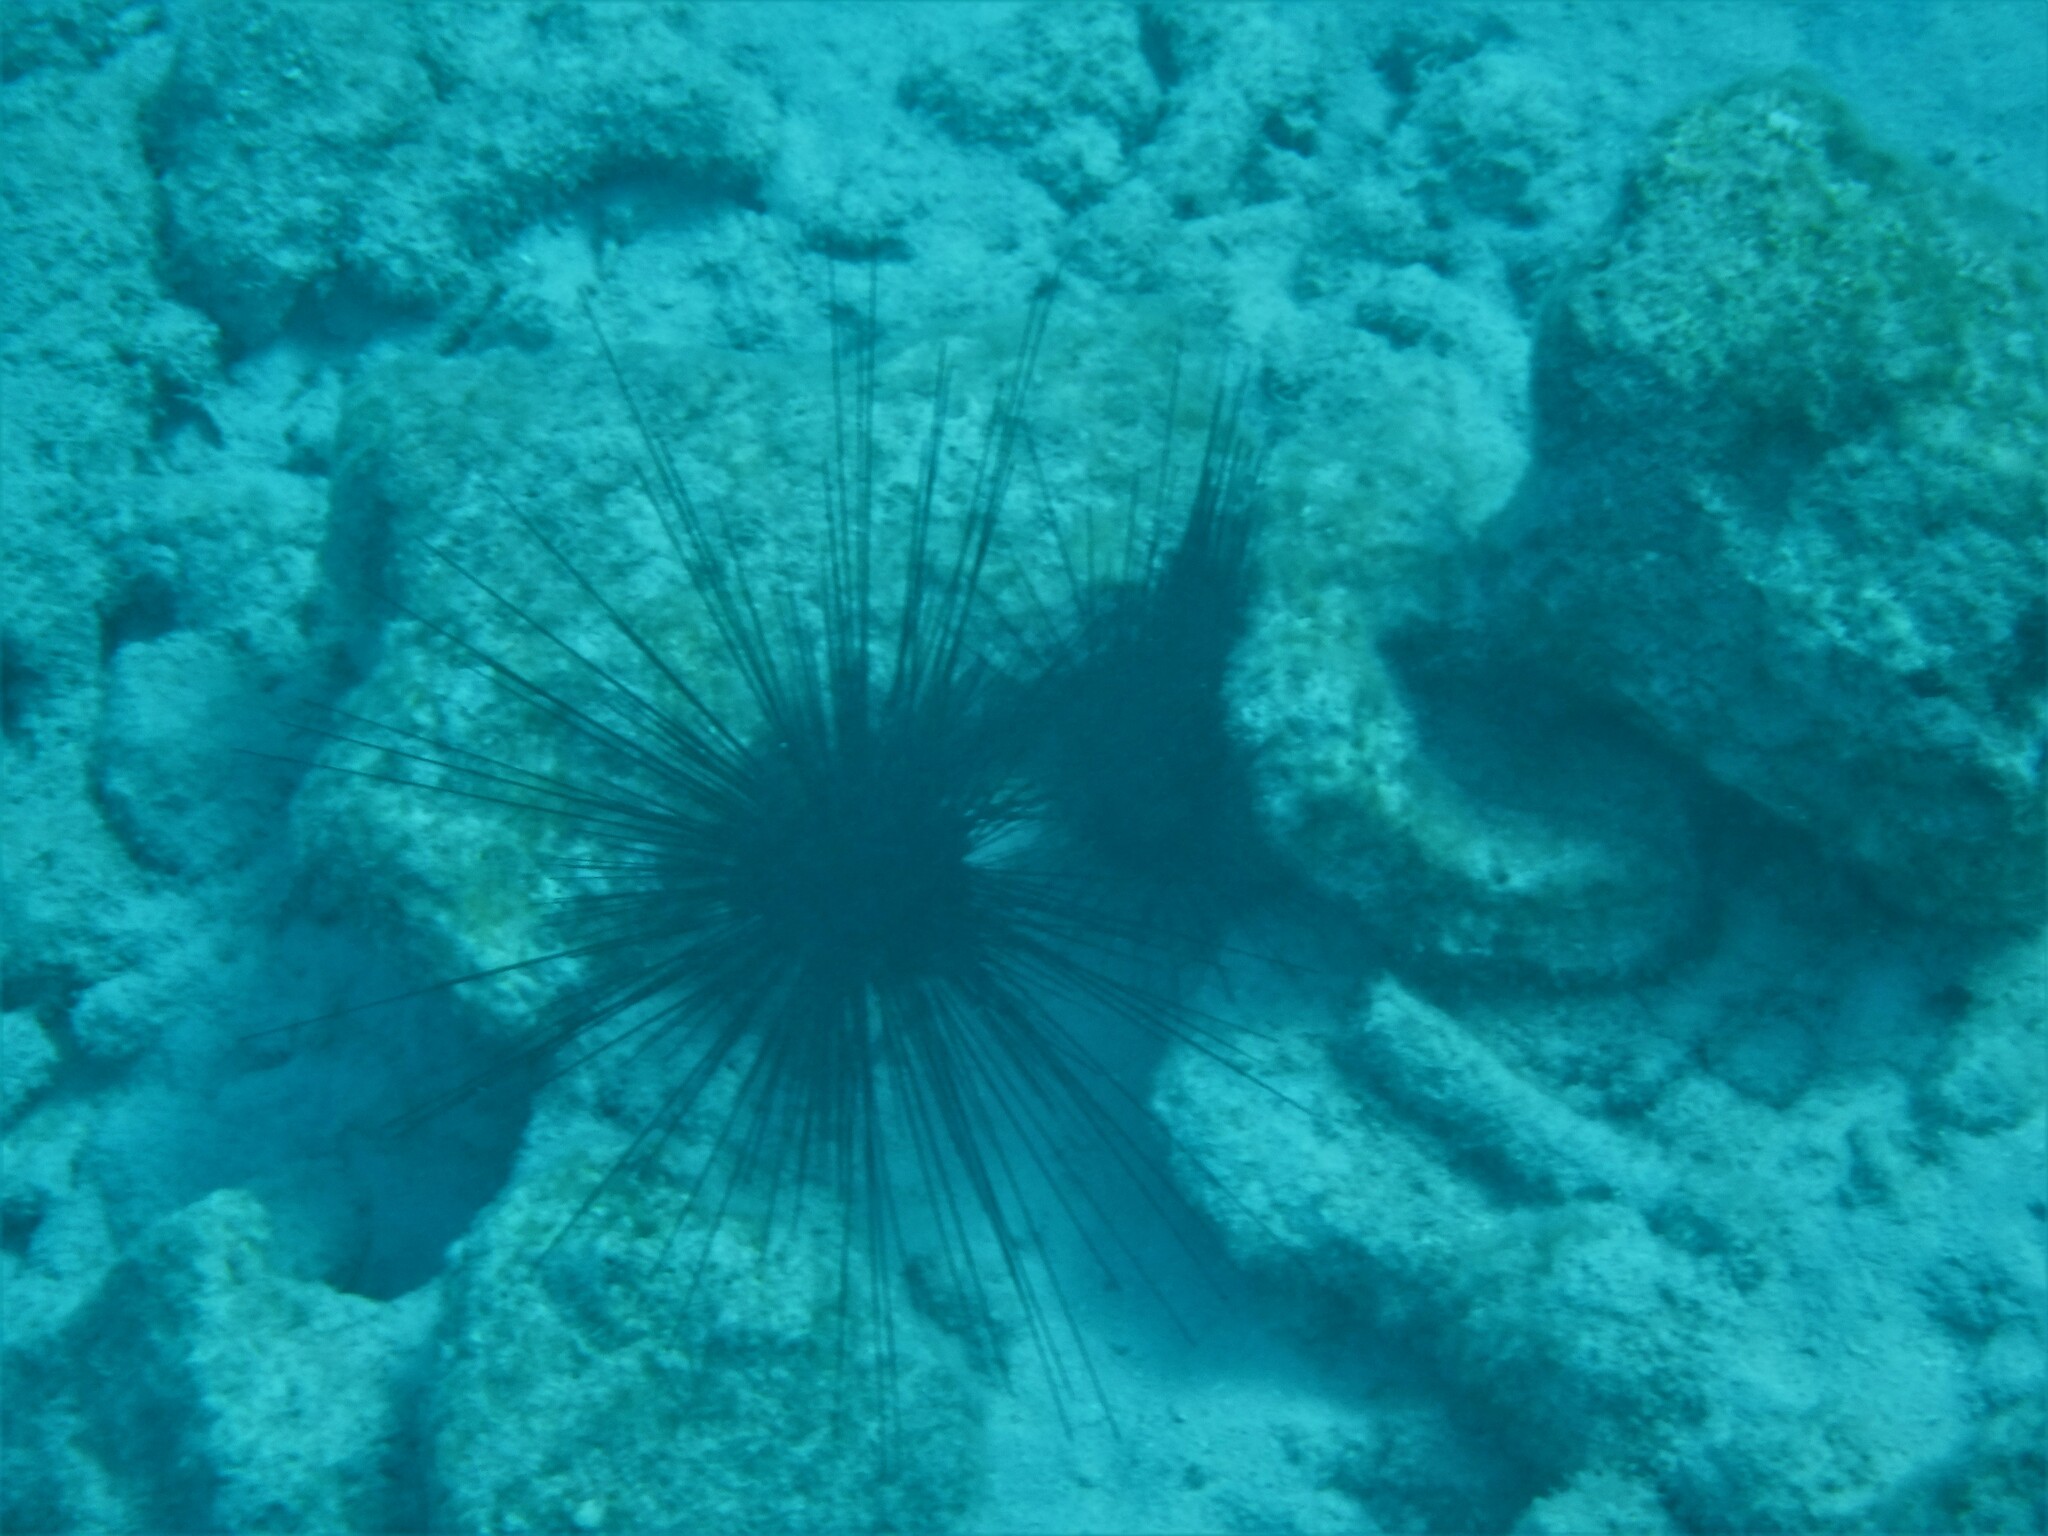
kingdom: Animalia
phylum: Echinodermata
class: Echinoidea
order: Diadematoida
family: Diadematidae
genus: Diadema
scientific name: Diadema antillarum
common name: Spiny urchin
